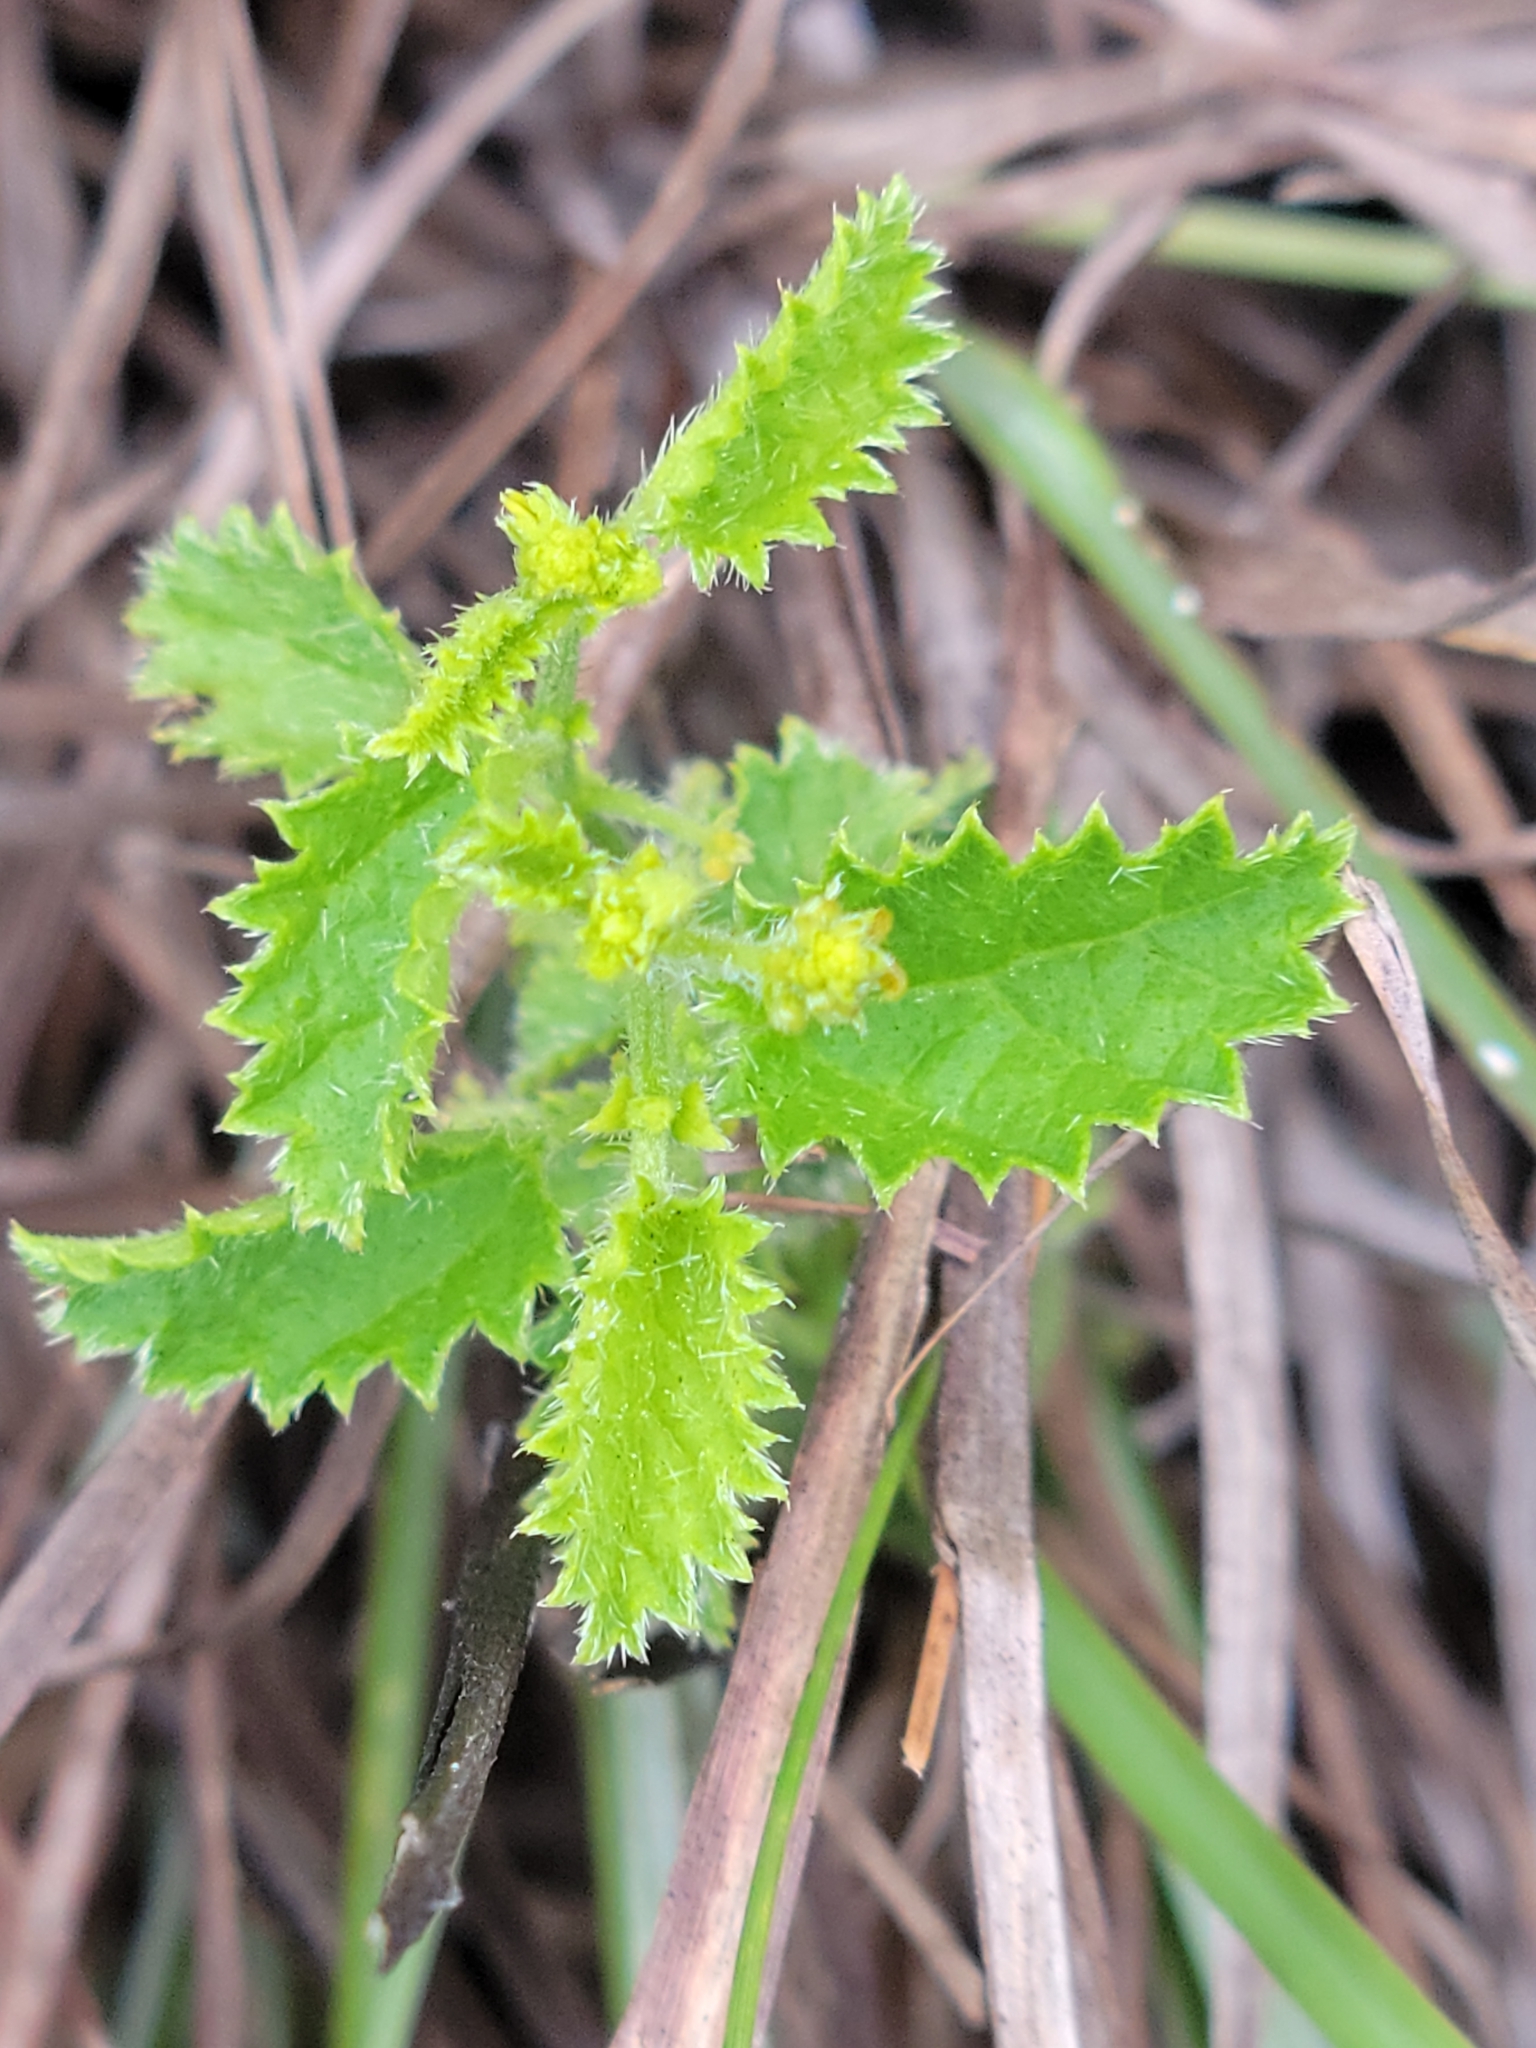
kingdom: Plantae
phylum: Tracheophyta
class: Magnoliopsida
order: Malpighiales
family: Euphorbiaceae
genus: Tragia
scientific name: Tragia saxicola
